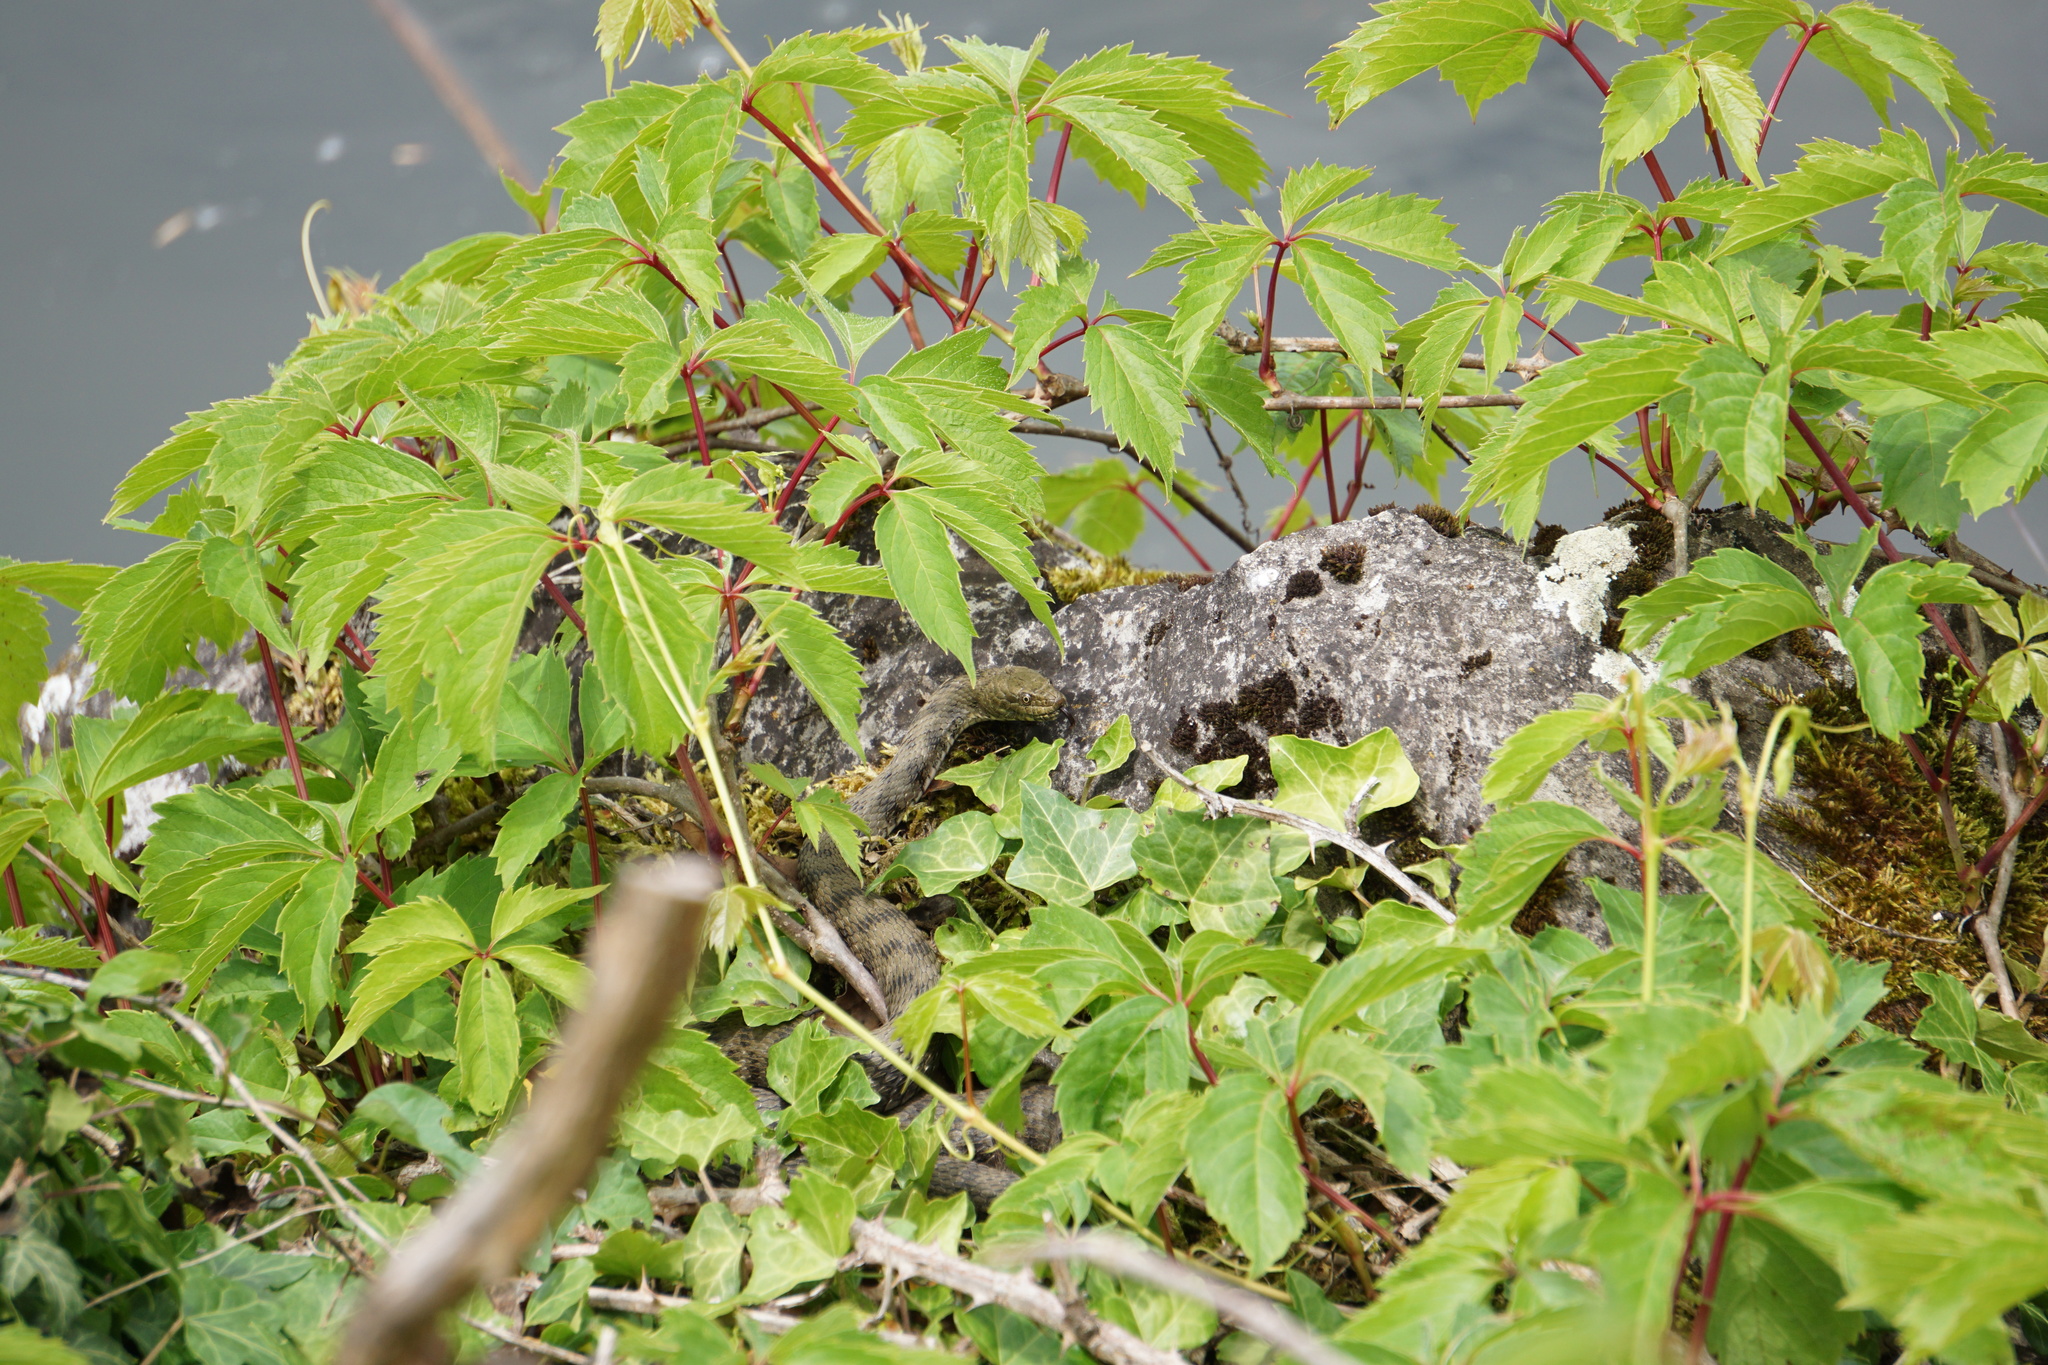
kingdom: Animalia
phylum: Chordata
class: Squamata
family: Colubridae
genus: Natrix
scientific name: Natrix tessellata
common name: Dice snake
